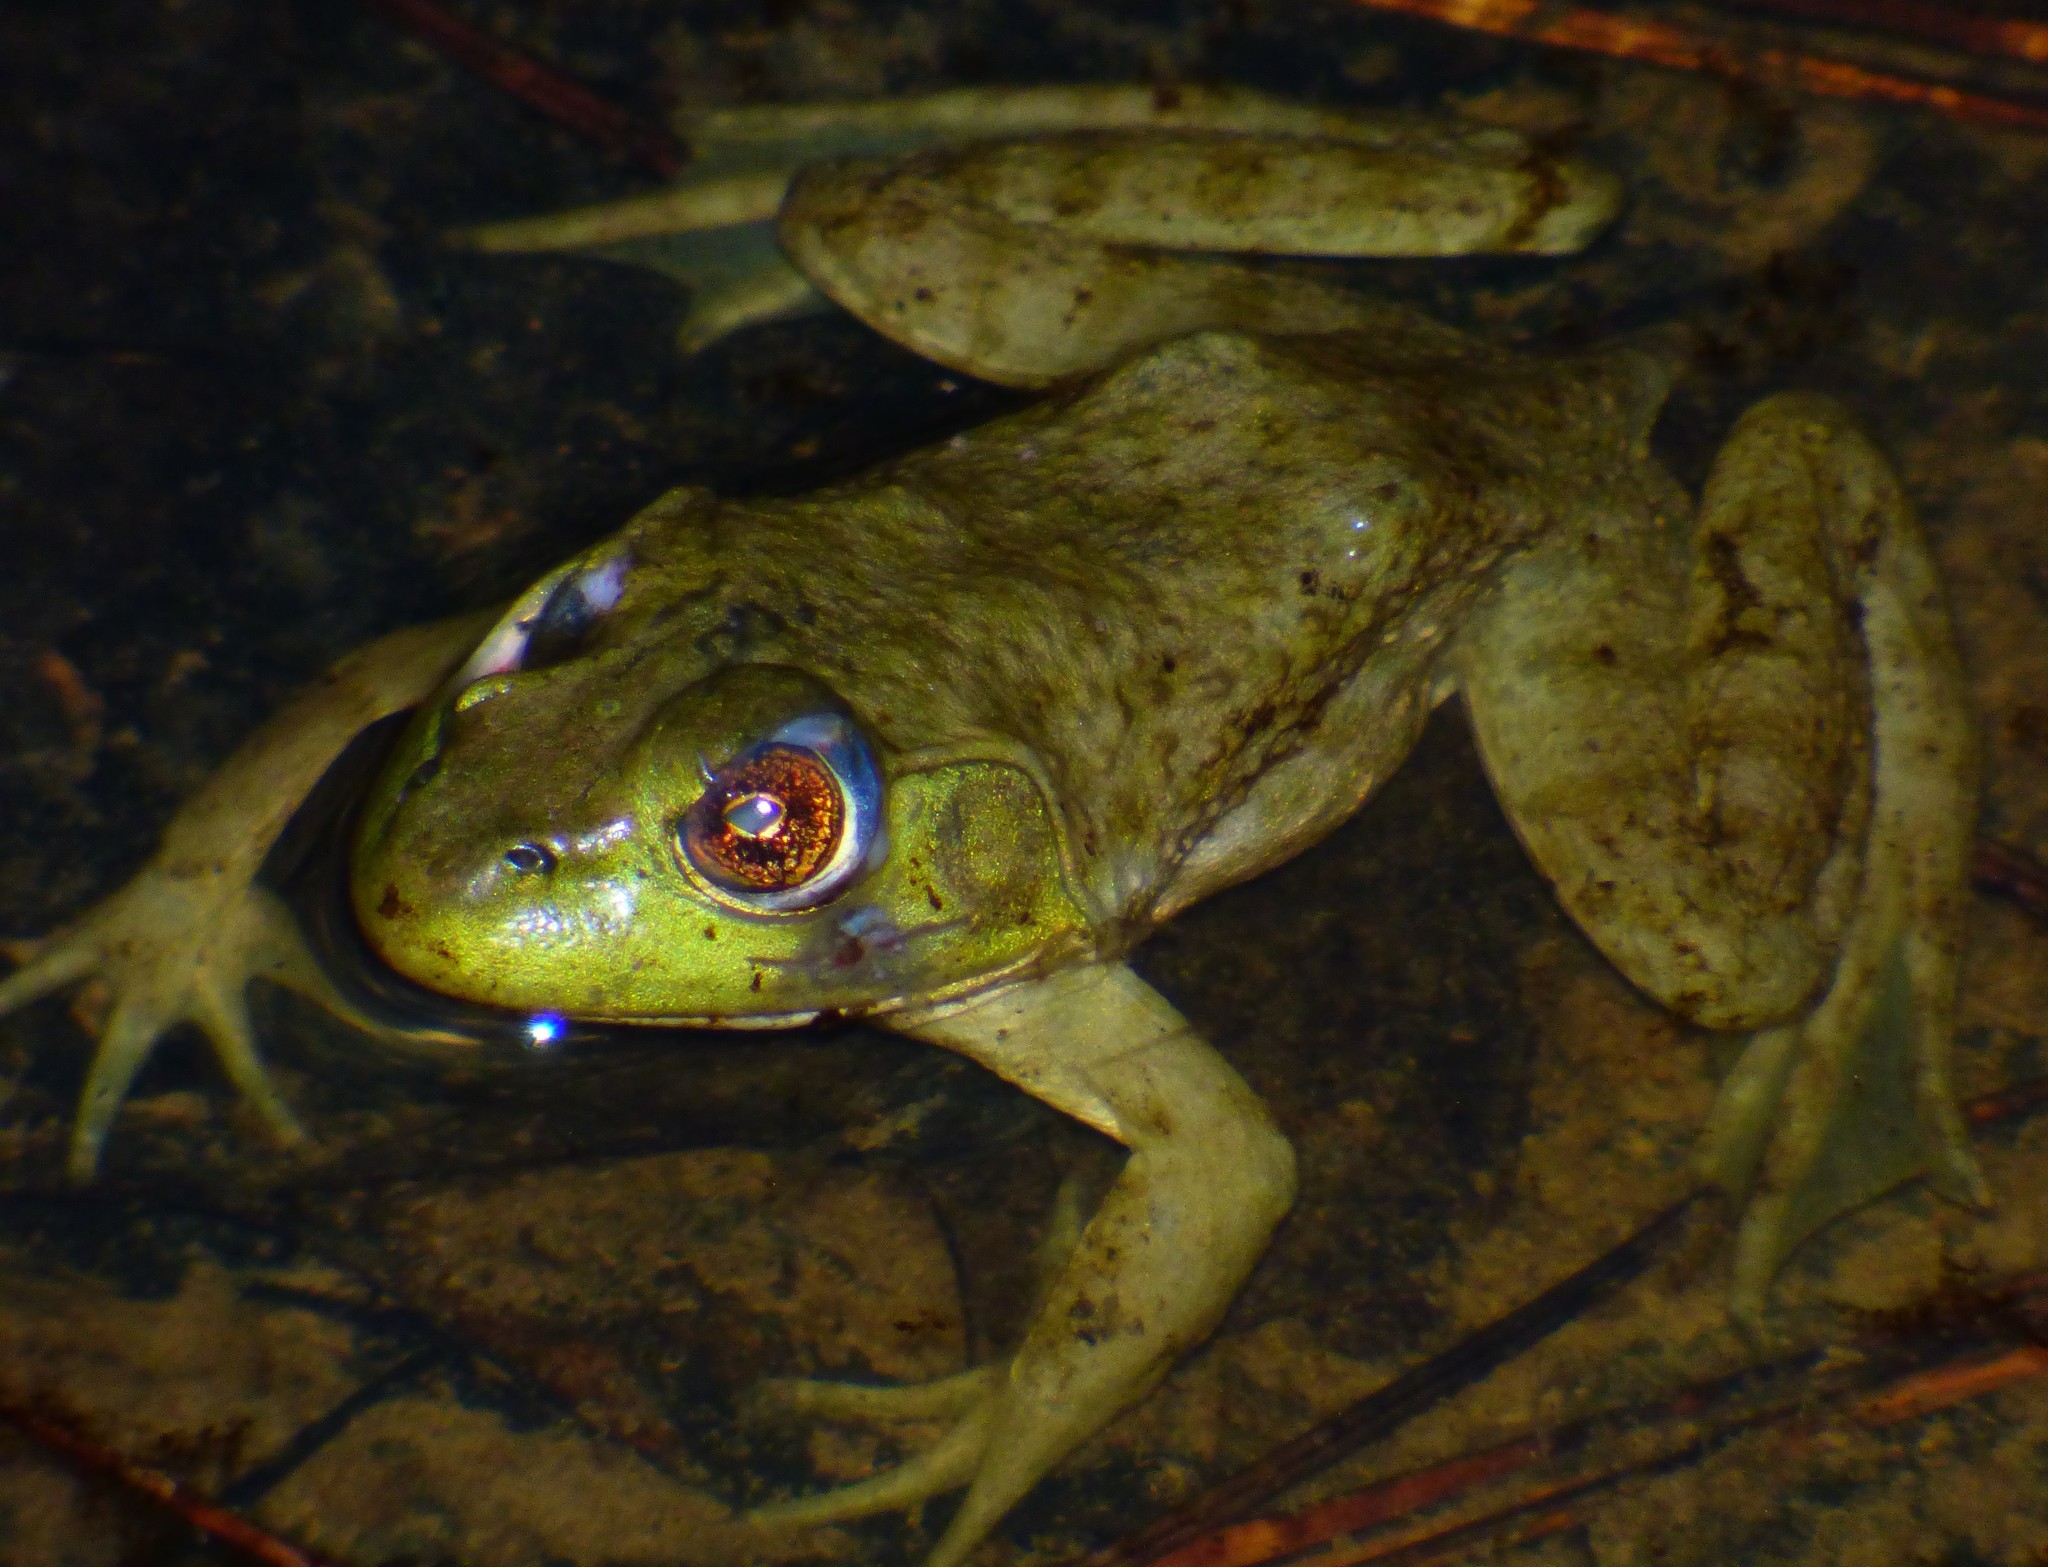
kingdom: Animalia
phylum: Chordata
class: Amphibia
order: Anura
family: Ranidae
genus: Lithobates
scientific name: Lithobates catesbeianus
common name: American bullfrog
